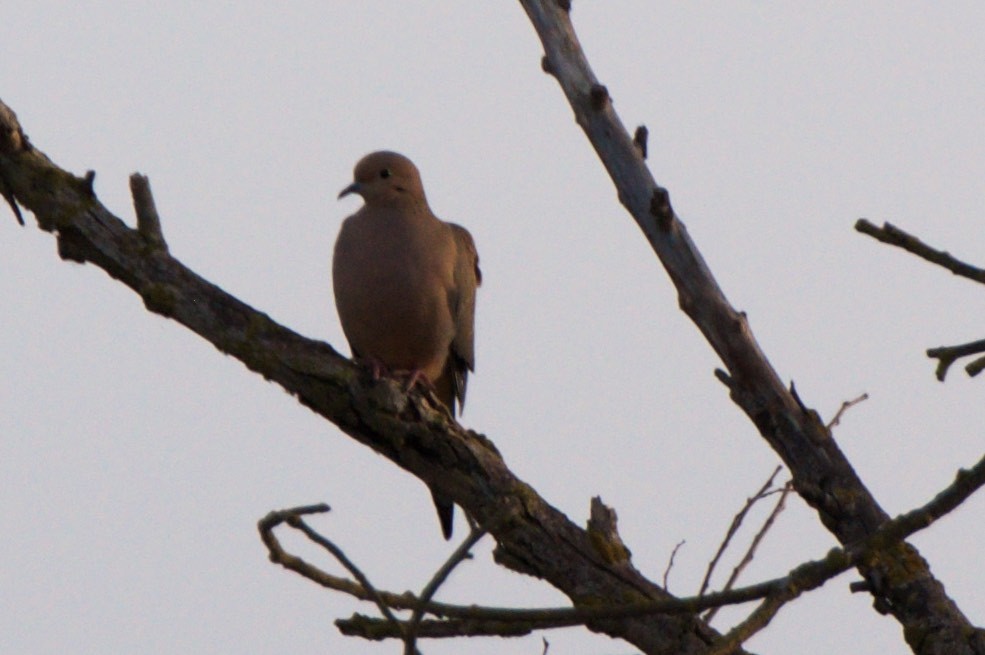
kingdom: Animalia
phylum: Chordata
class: Aves
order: Columbiformes
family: Columbidae
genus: Zenaida
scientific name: Zenaida macroura
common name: Mourning dove
